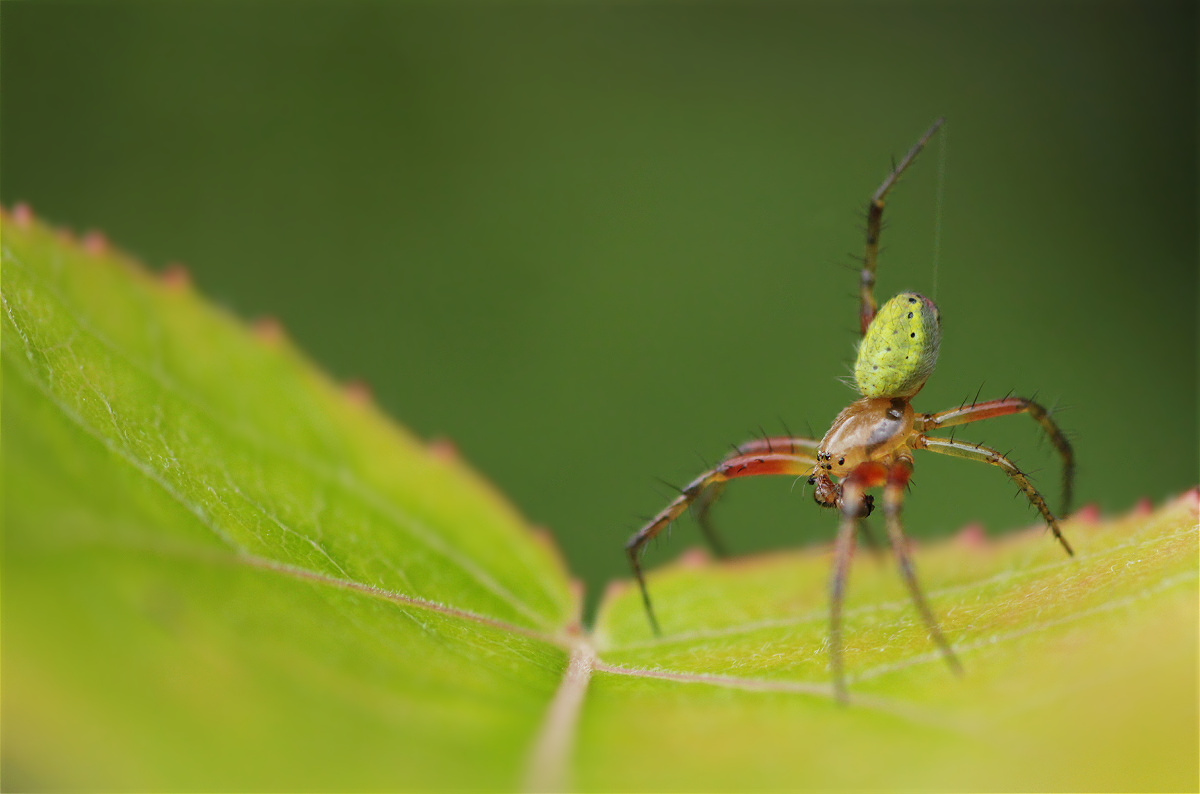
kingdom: Animalia
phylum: Arthropoda
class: Arachnida
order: Araneae
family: Araneidae
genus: Araniella
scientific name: Araniella
